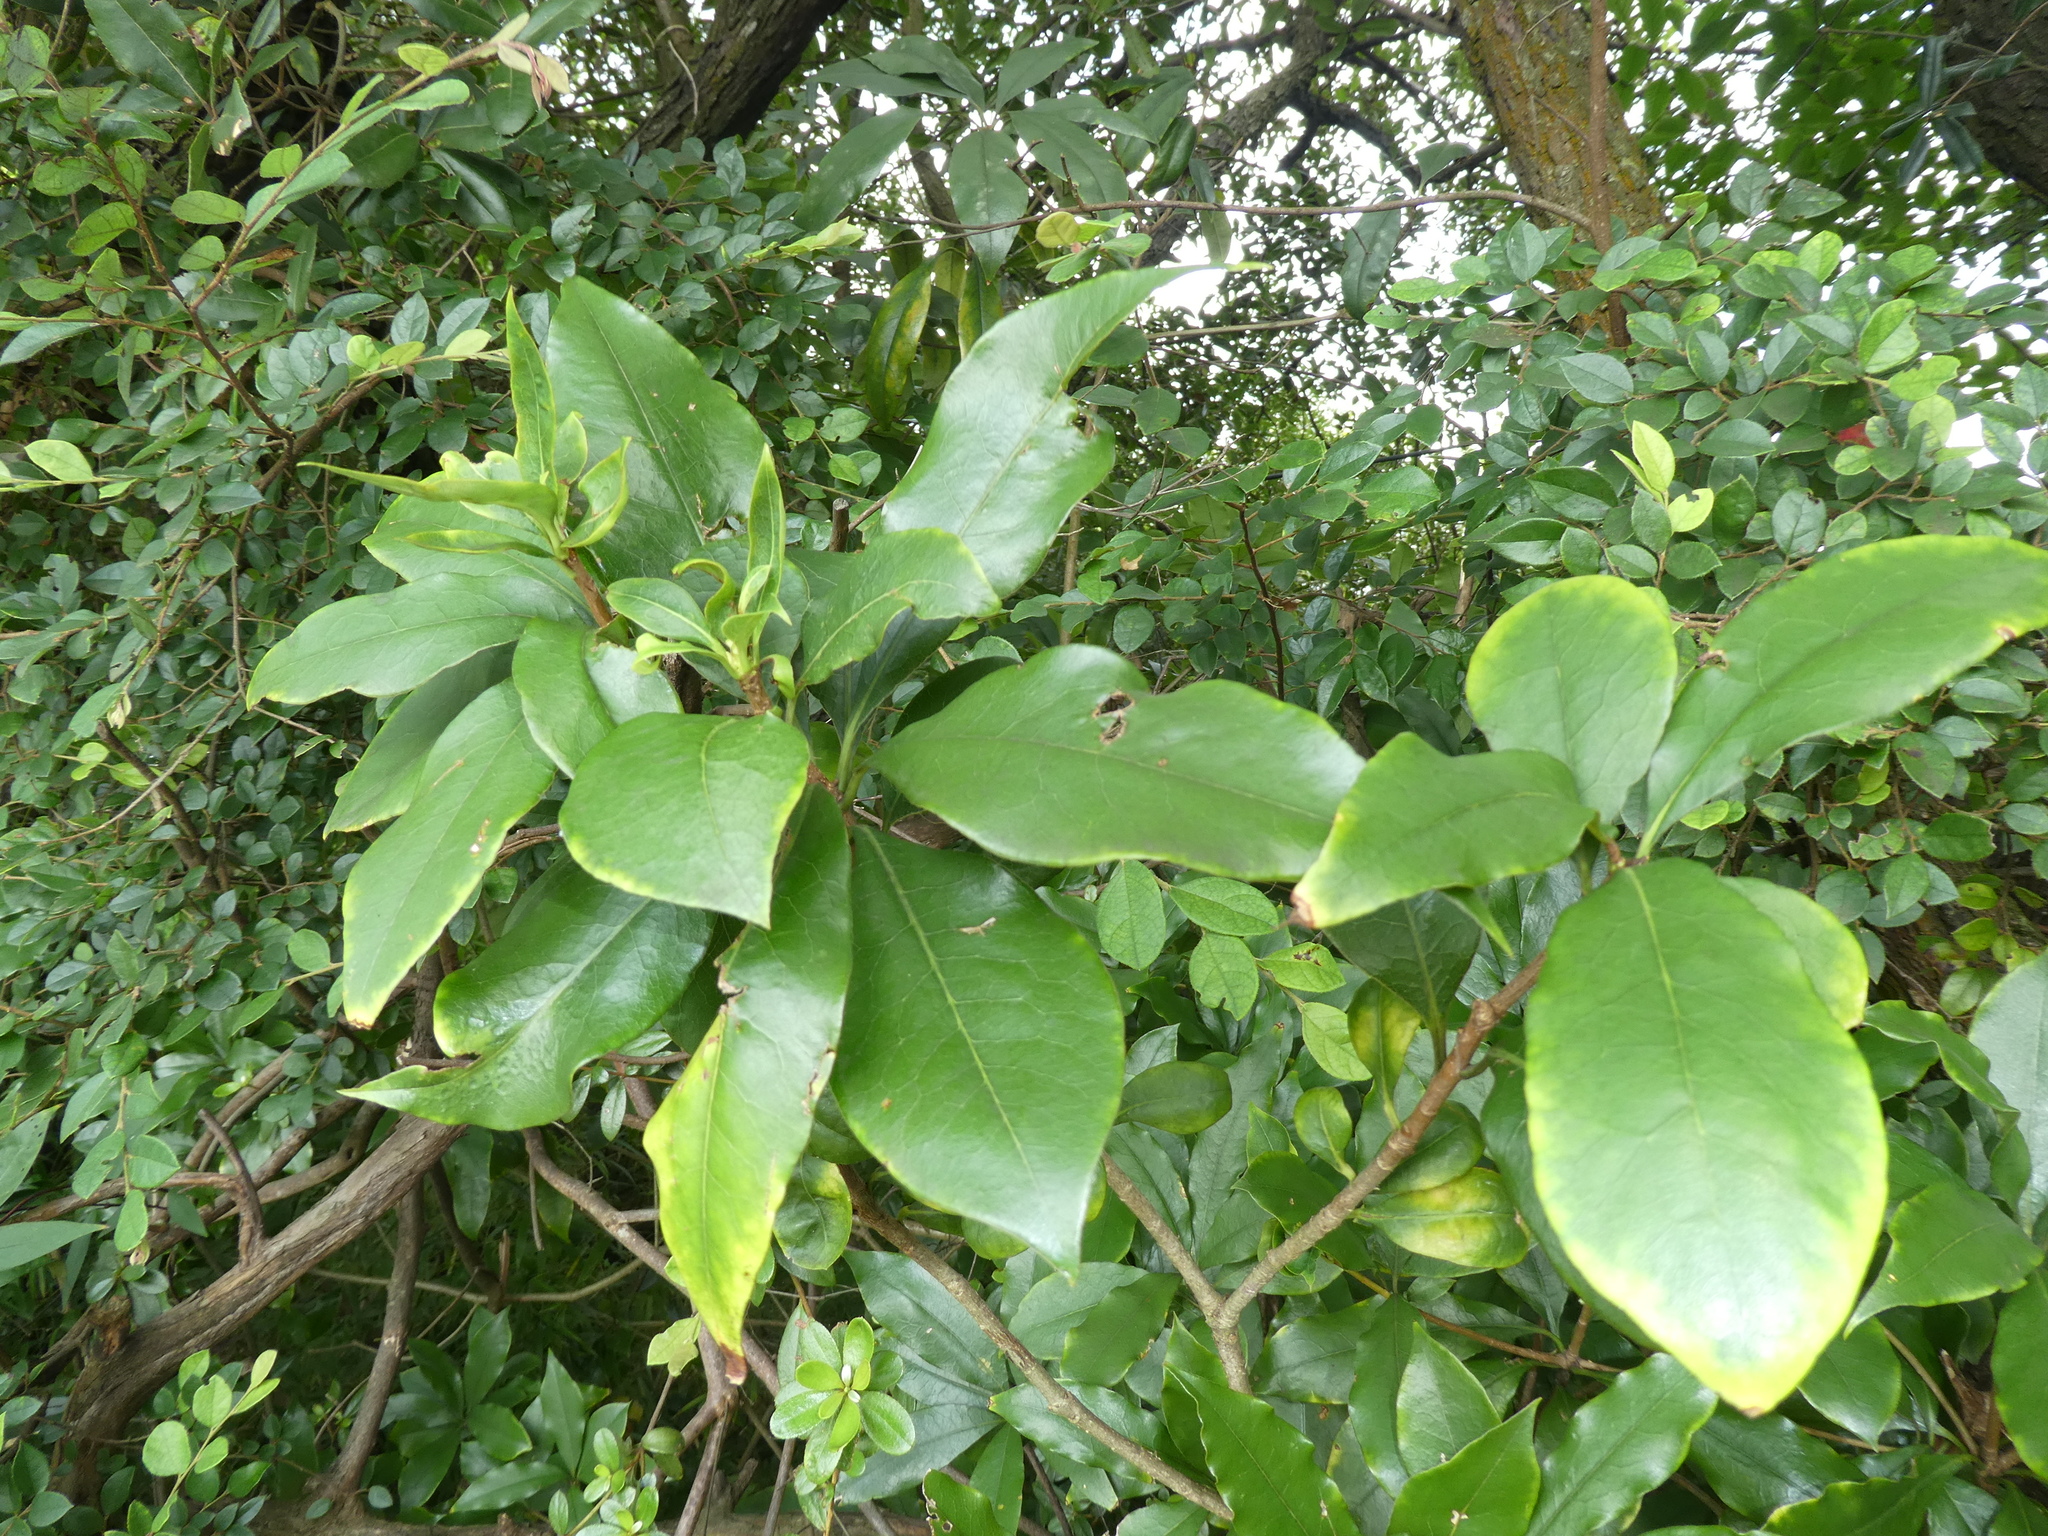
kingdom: Plantae
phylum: Tracheophyta
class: Magnoliopsida
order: Apiales
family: Pittosporaceae
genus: Pittosporum
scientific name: Pittosporum glabratum
